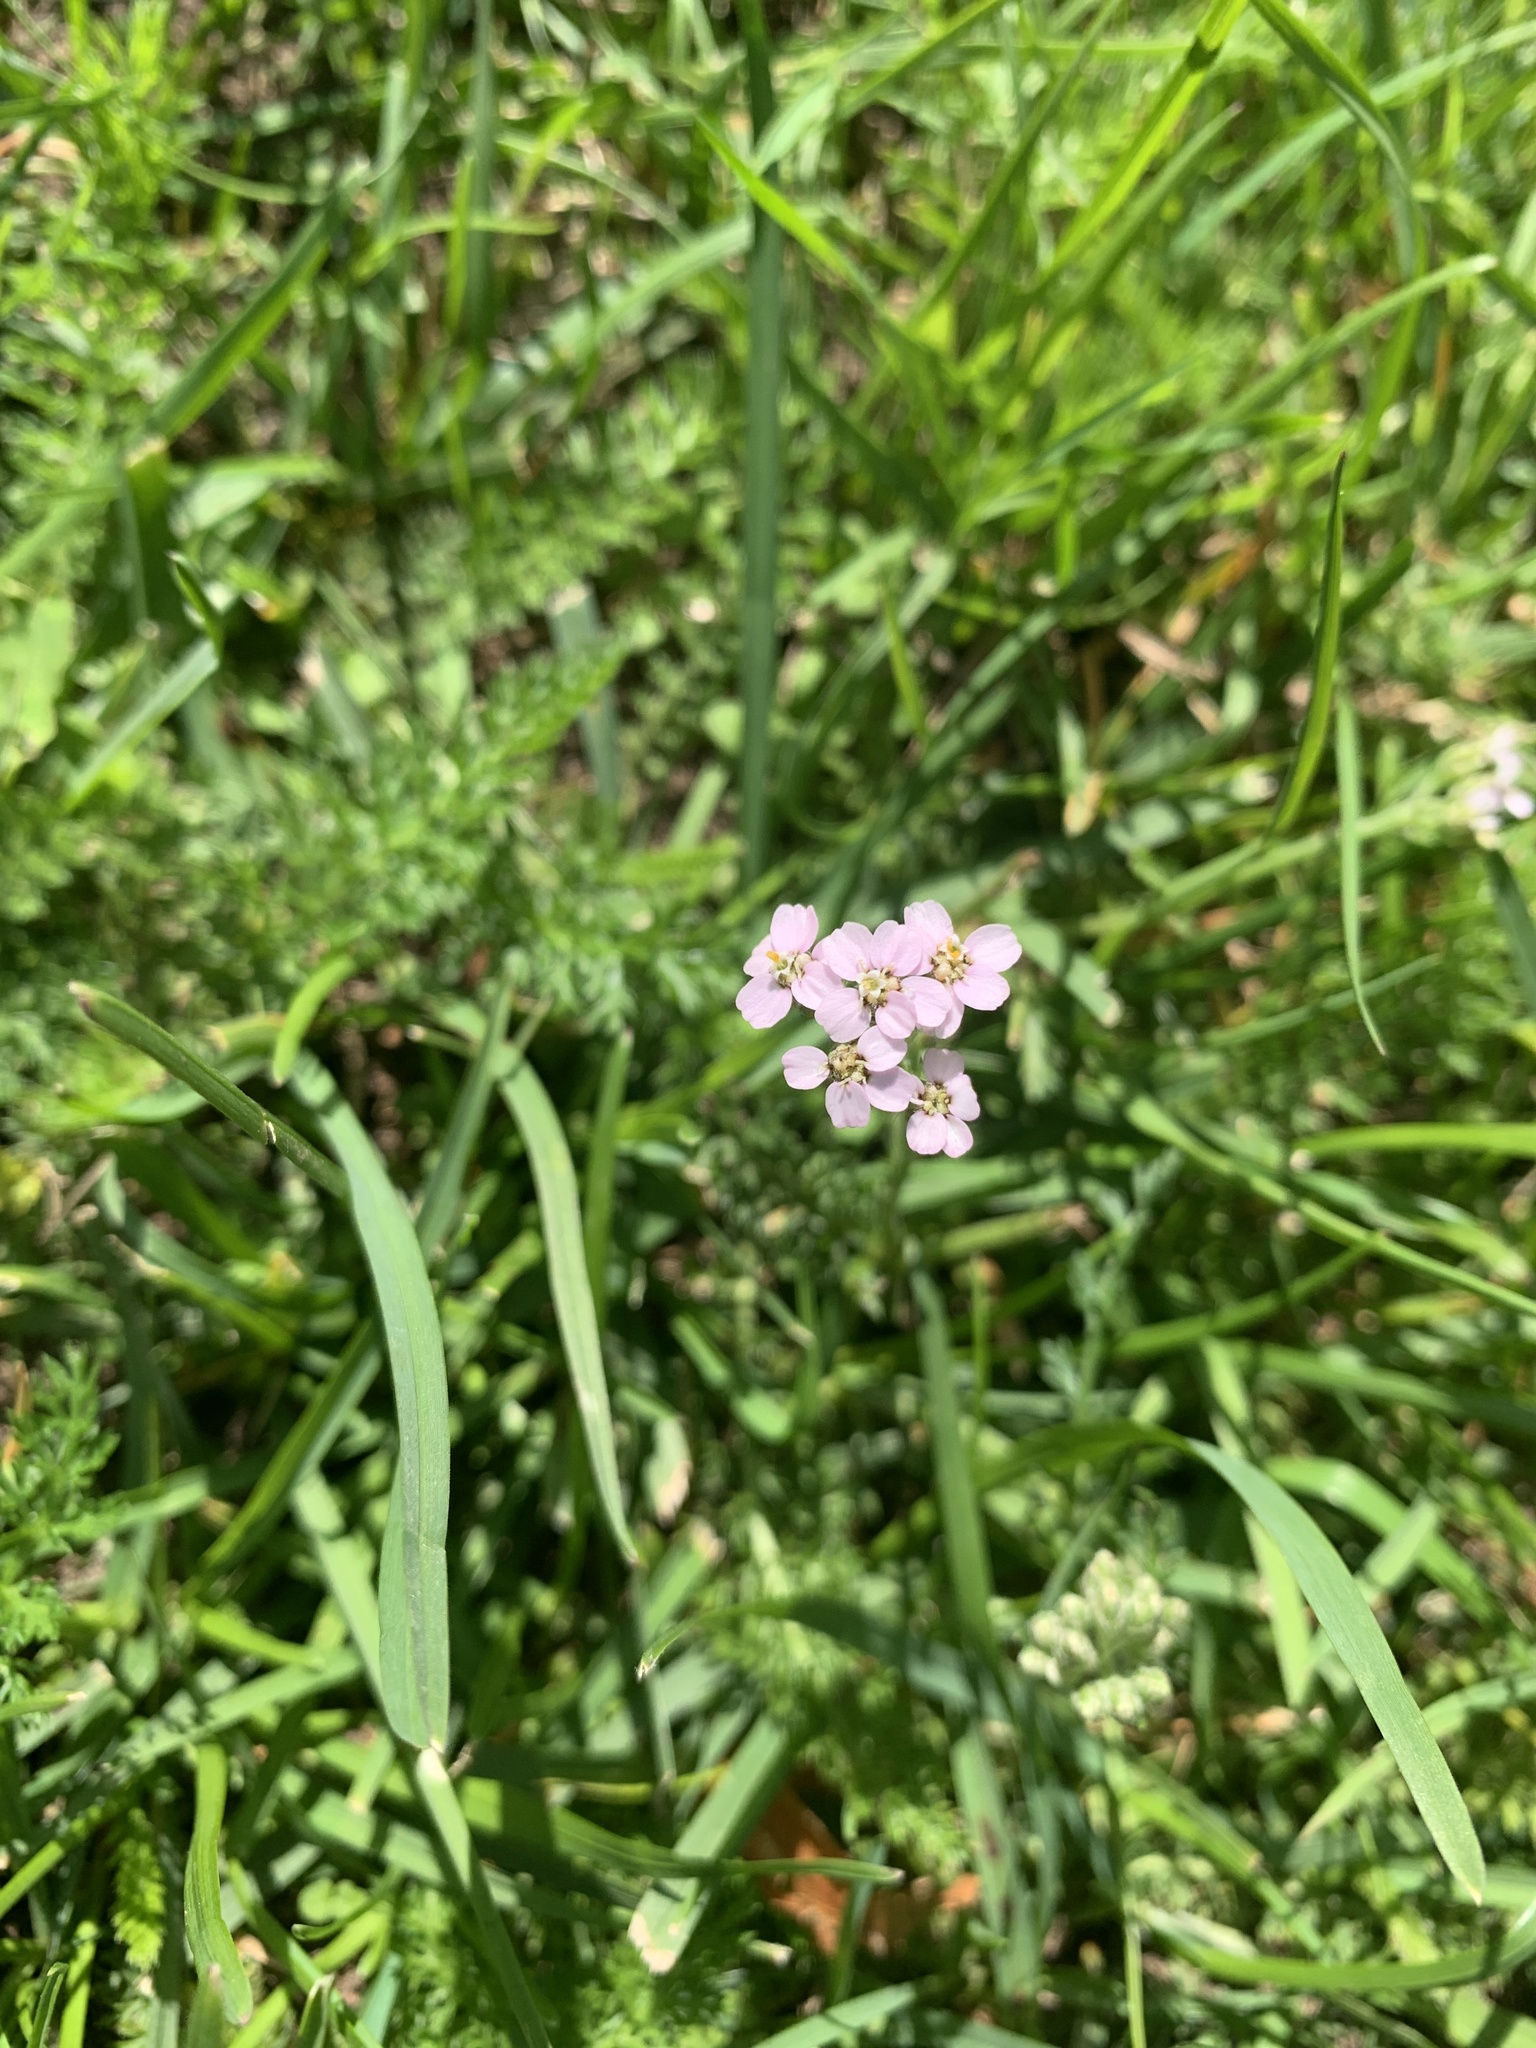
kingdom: Plantae
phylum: Tracheophyta
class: Magnoliopsida
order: Asterales
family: Asteraceae
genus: Achillea
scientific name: Achillea millefolium
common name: Yarrow
